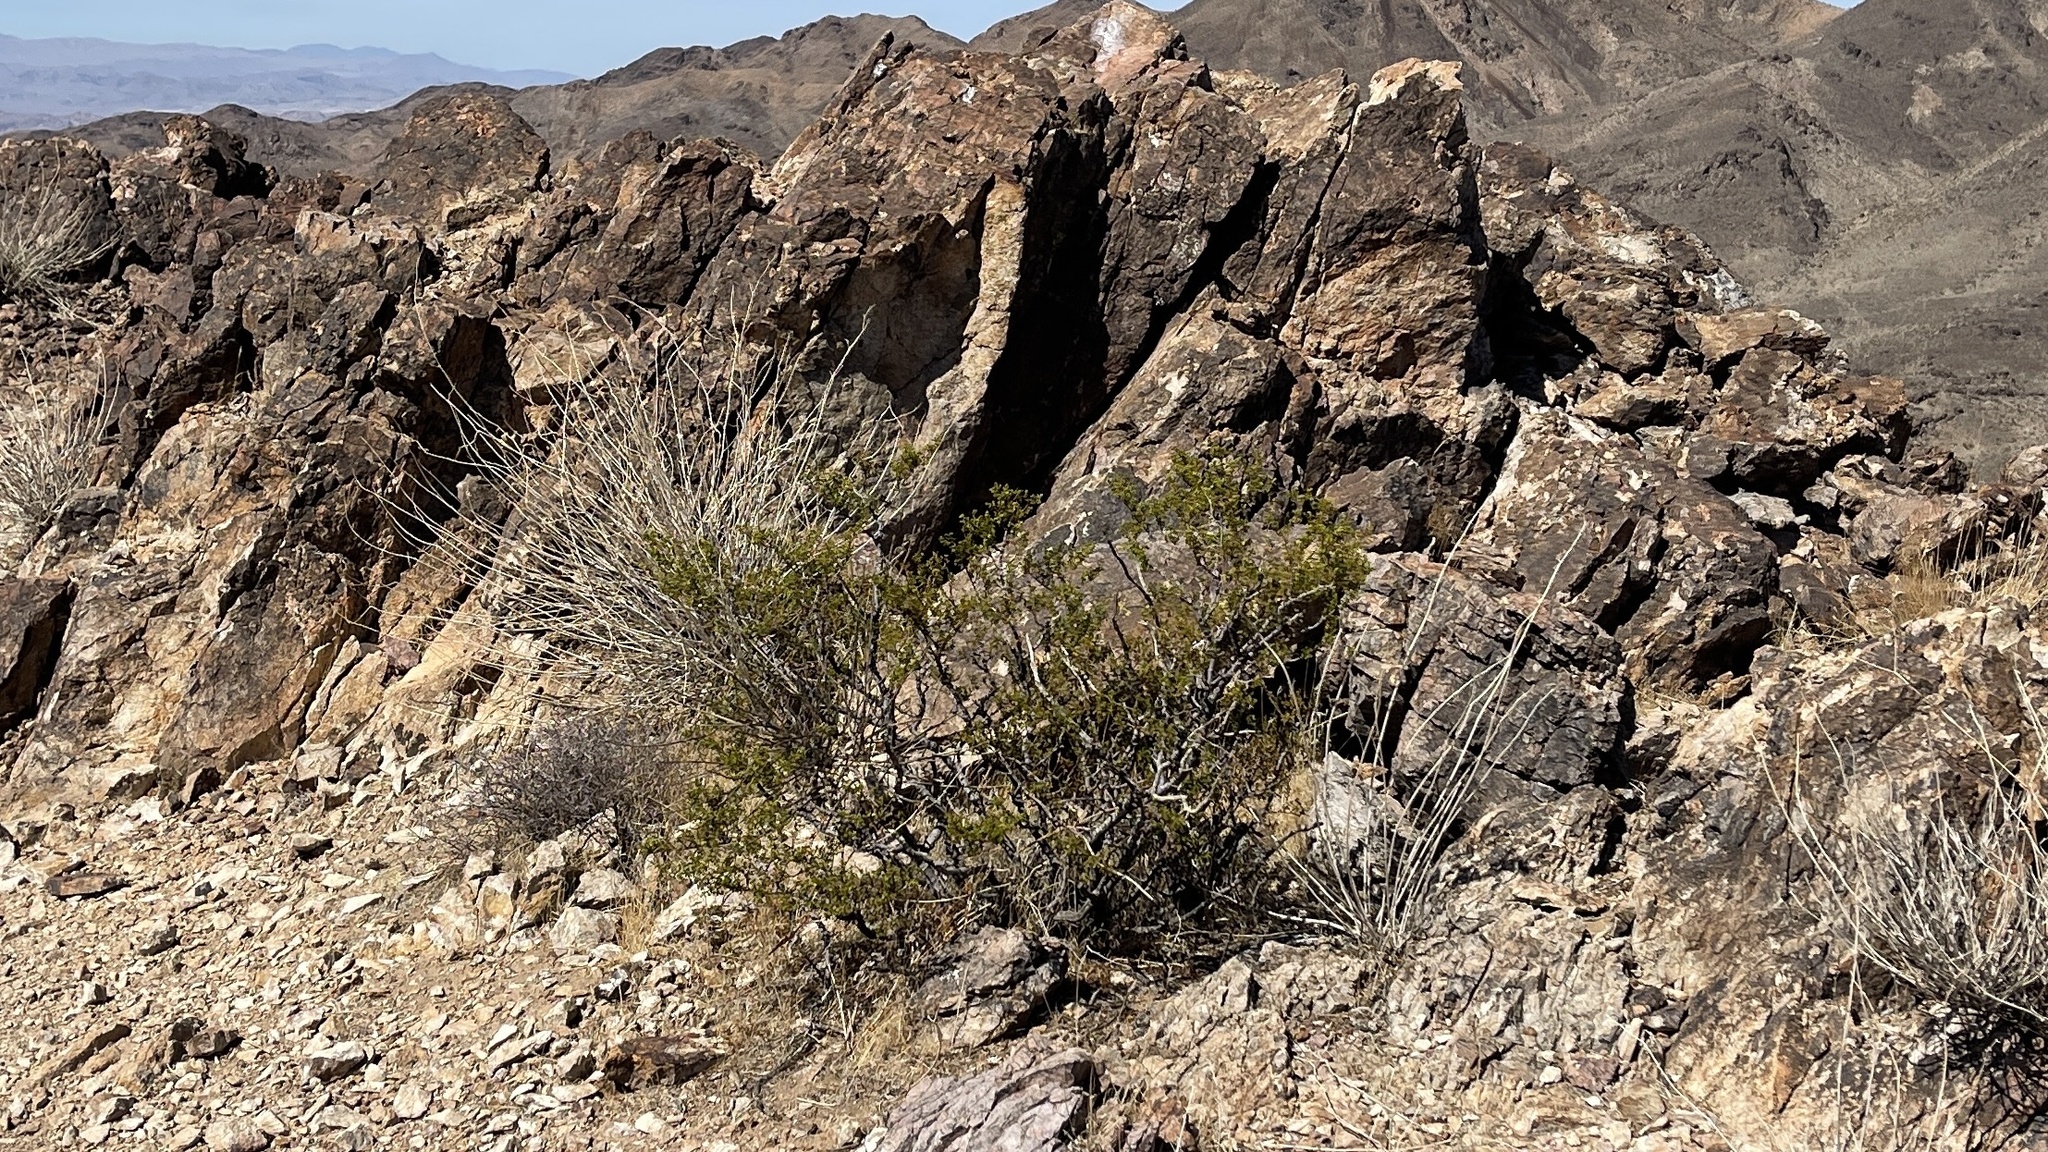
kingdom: Plantae
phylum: Tracheophyta
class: Magnoliopsida
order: Zygophyllales
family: Zygophyllaceae
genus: Larrea
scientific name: Larrea tridentata
